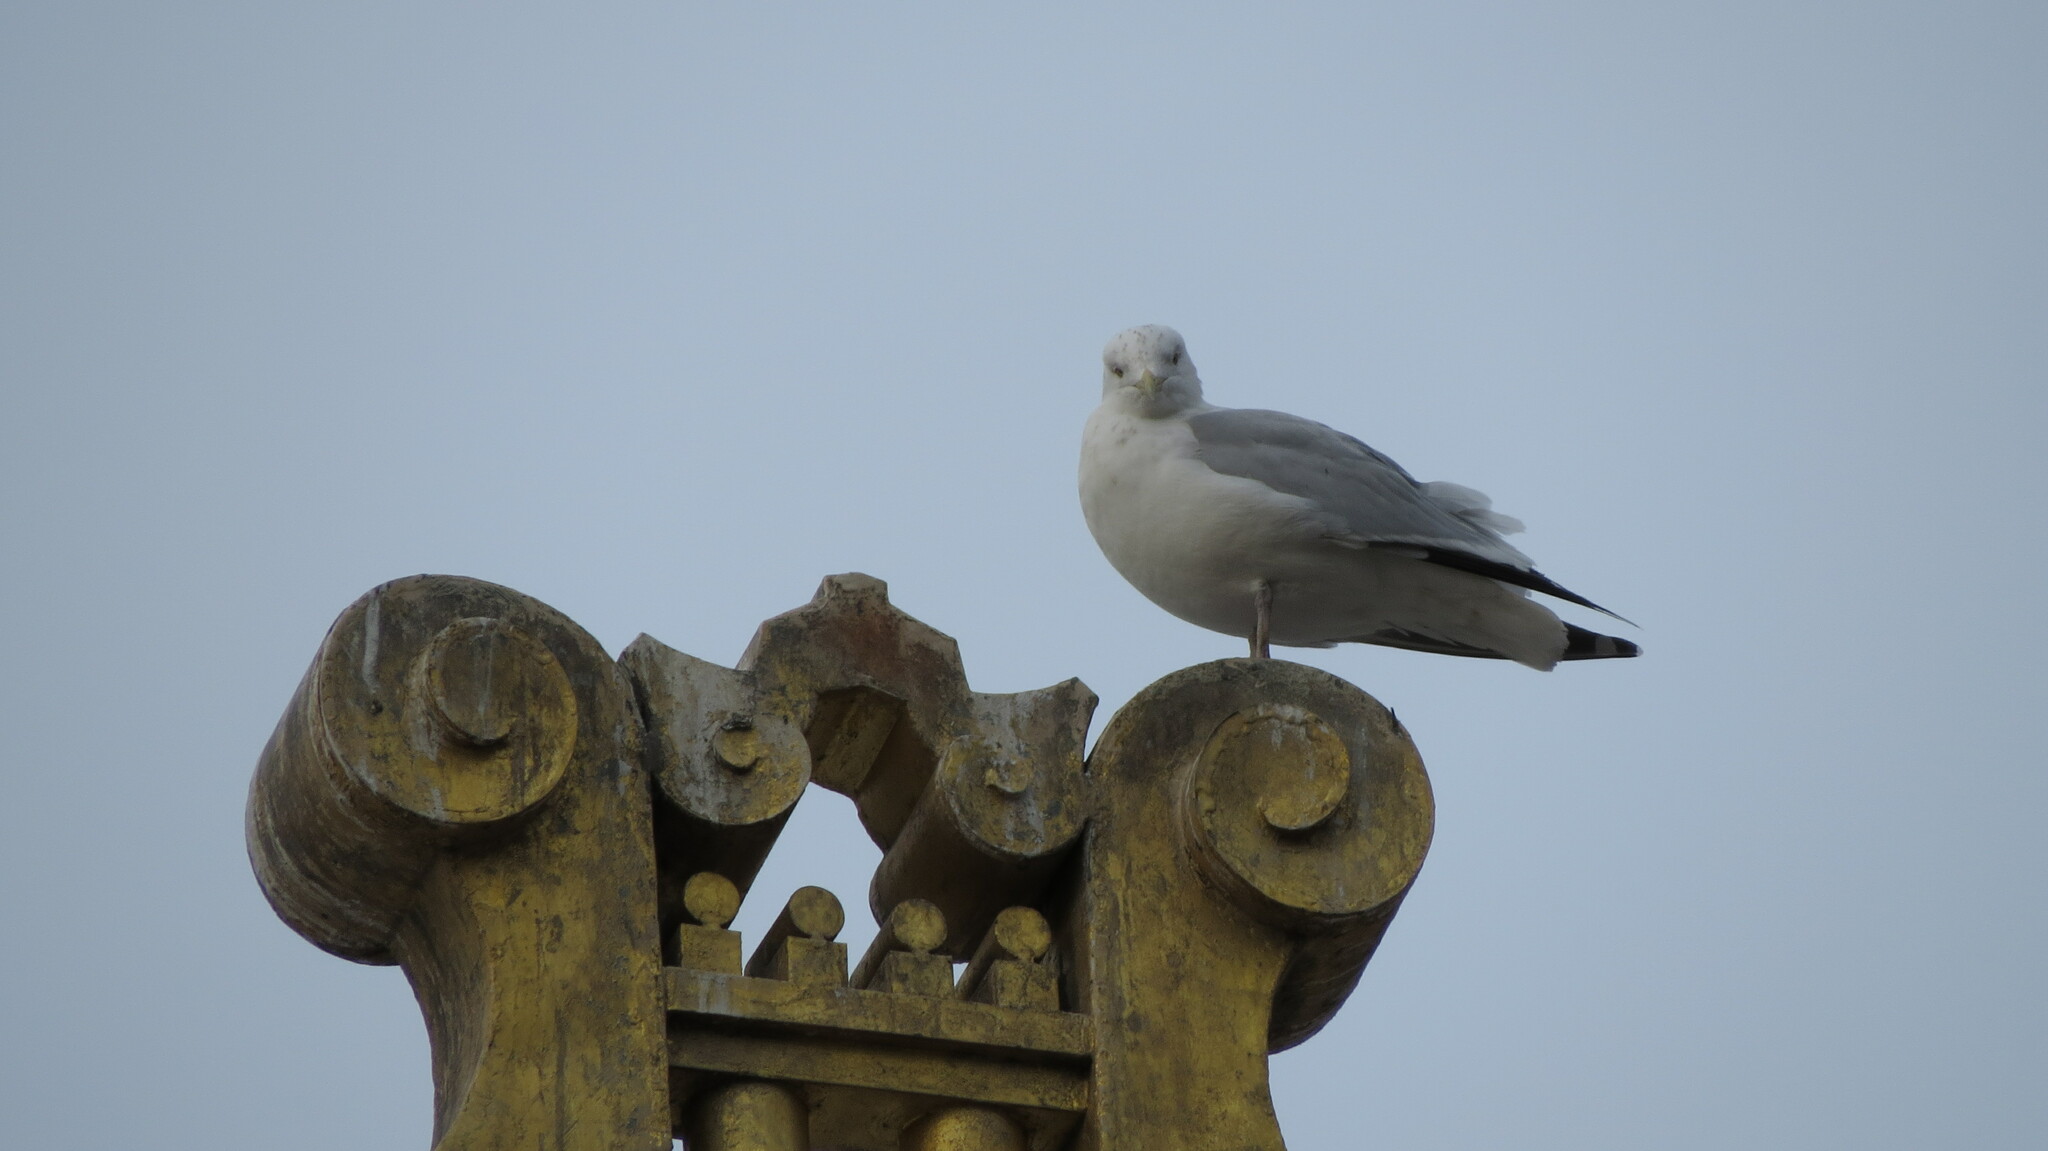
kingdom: Animalia
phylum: Chordata
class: Aves
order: Charadriiformes
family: Laridae
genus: Larus
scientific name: Larus smithsonianus
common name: American herring gull
